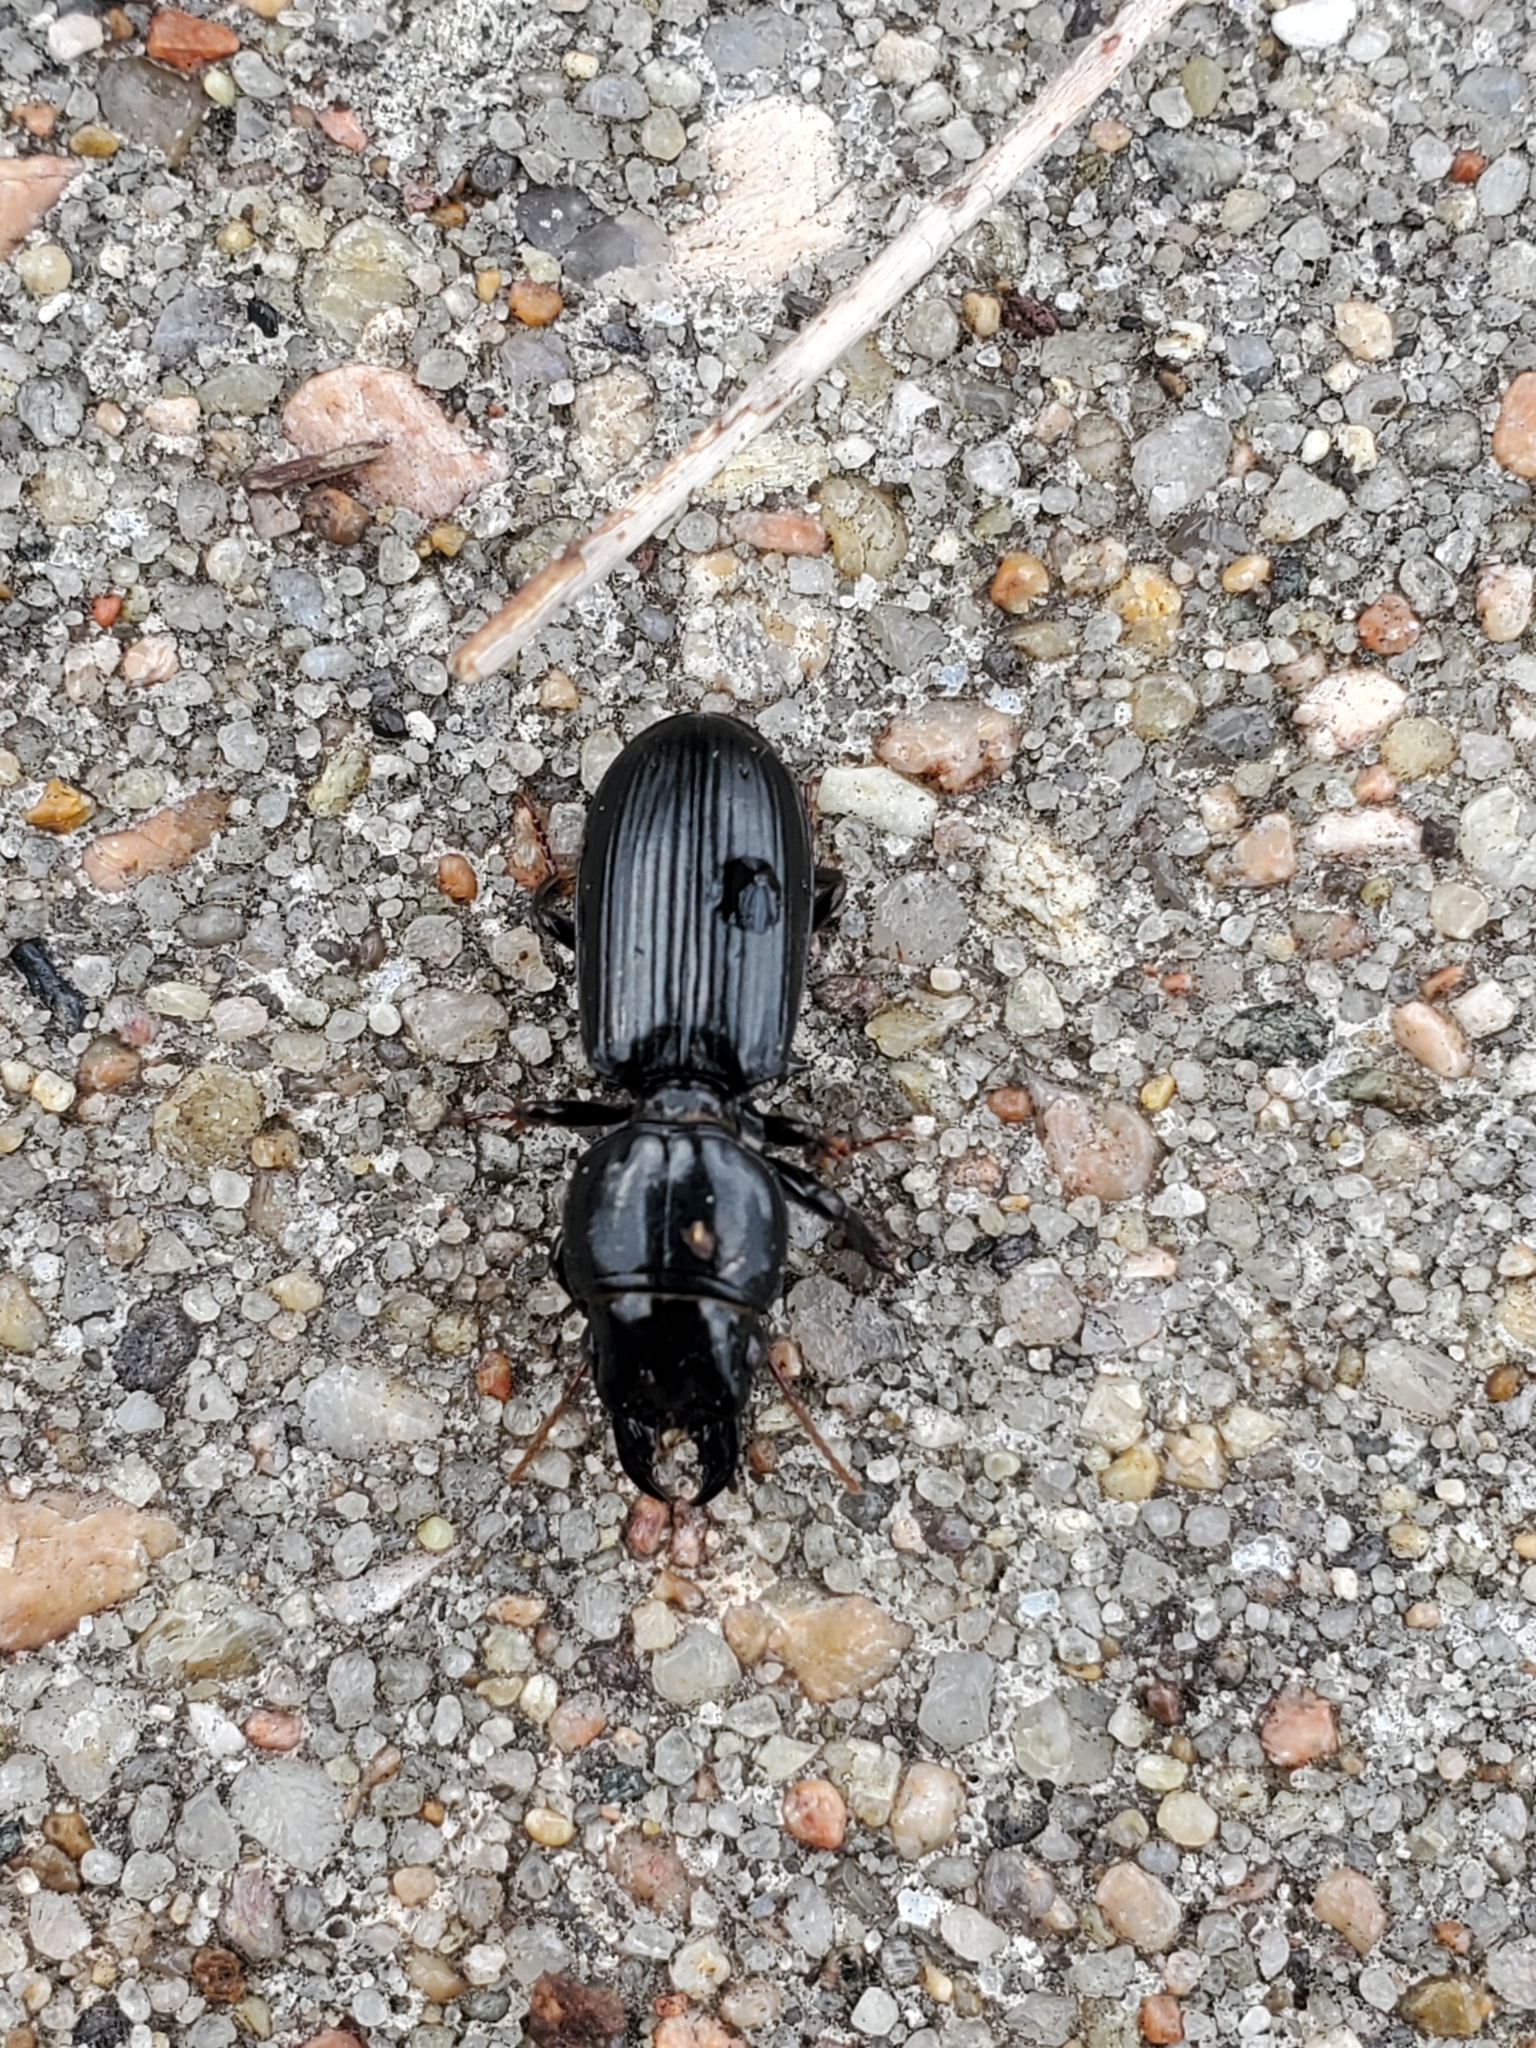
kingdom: Animalia
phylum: Arthropoda
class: Insecta
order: Coleoptera
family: Carabidae
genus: Scarites
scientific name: Scarites subterraneus
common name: Big-headed ground beetle
